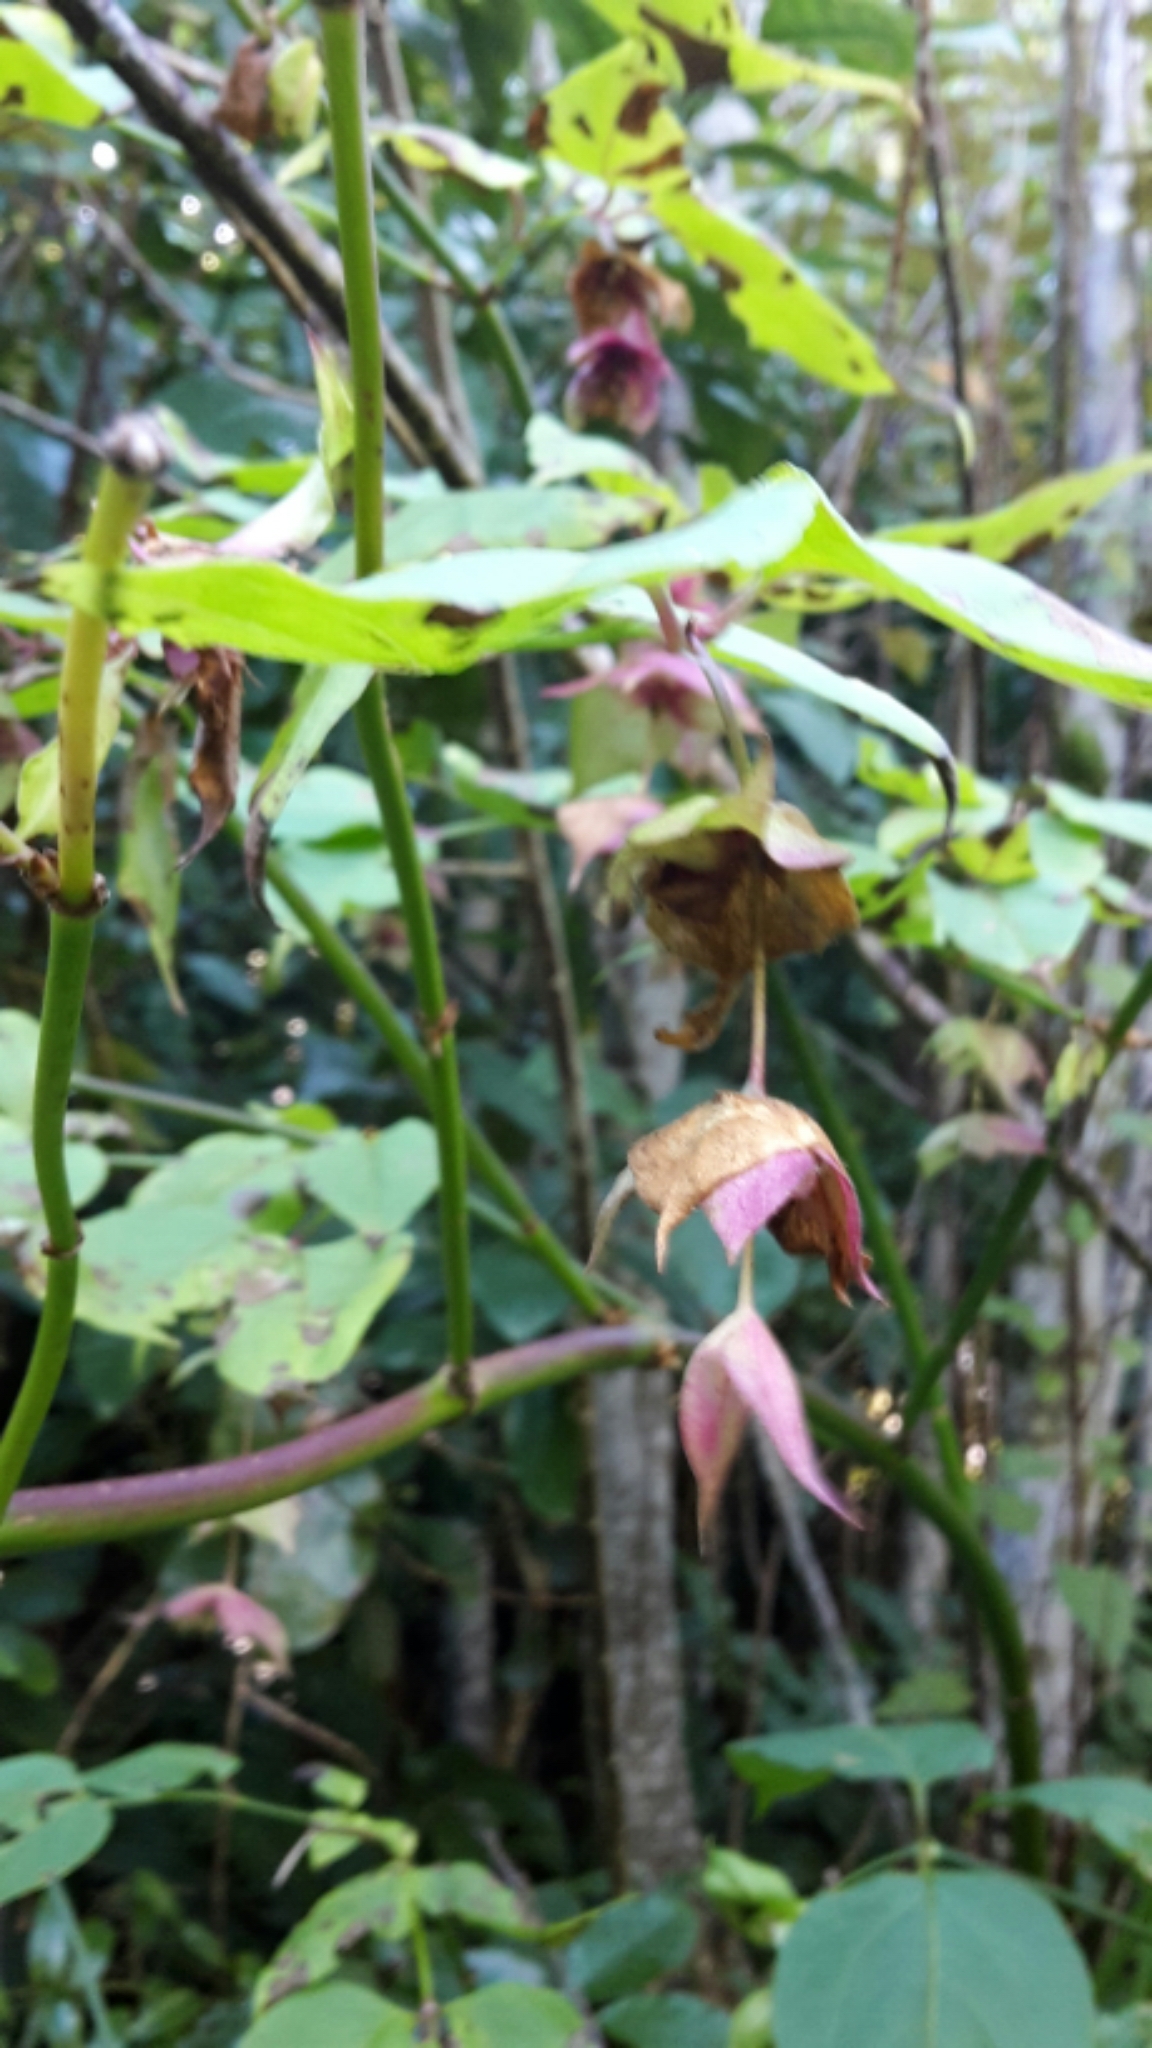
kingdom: Plantae
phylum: Tracheophyta
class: Magnoliopsida
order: Dipsacales
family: Caprifoliaceae
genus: Leycesteria
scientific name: Leycesteria formosa
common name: Himalayan honeysuckle
